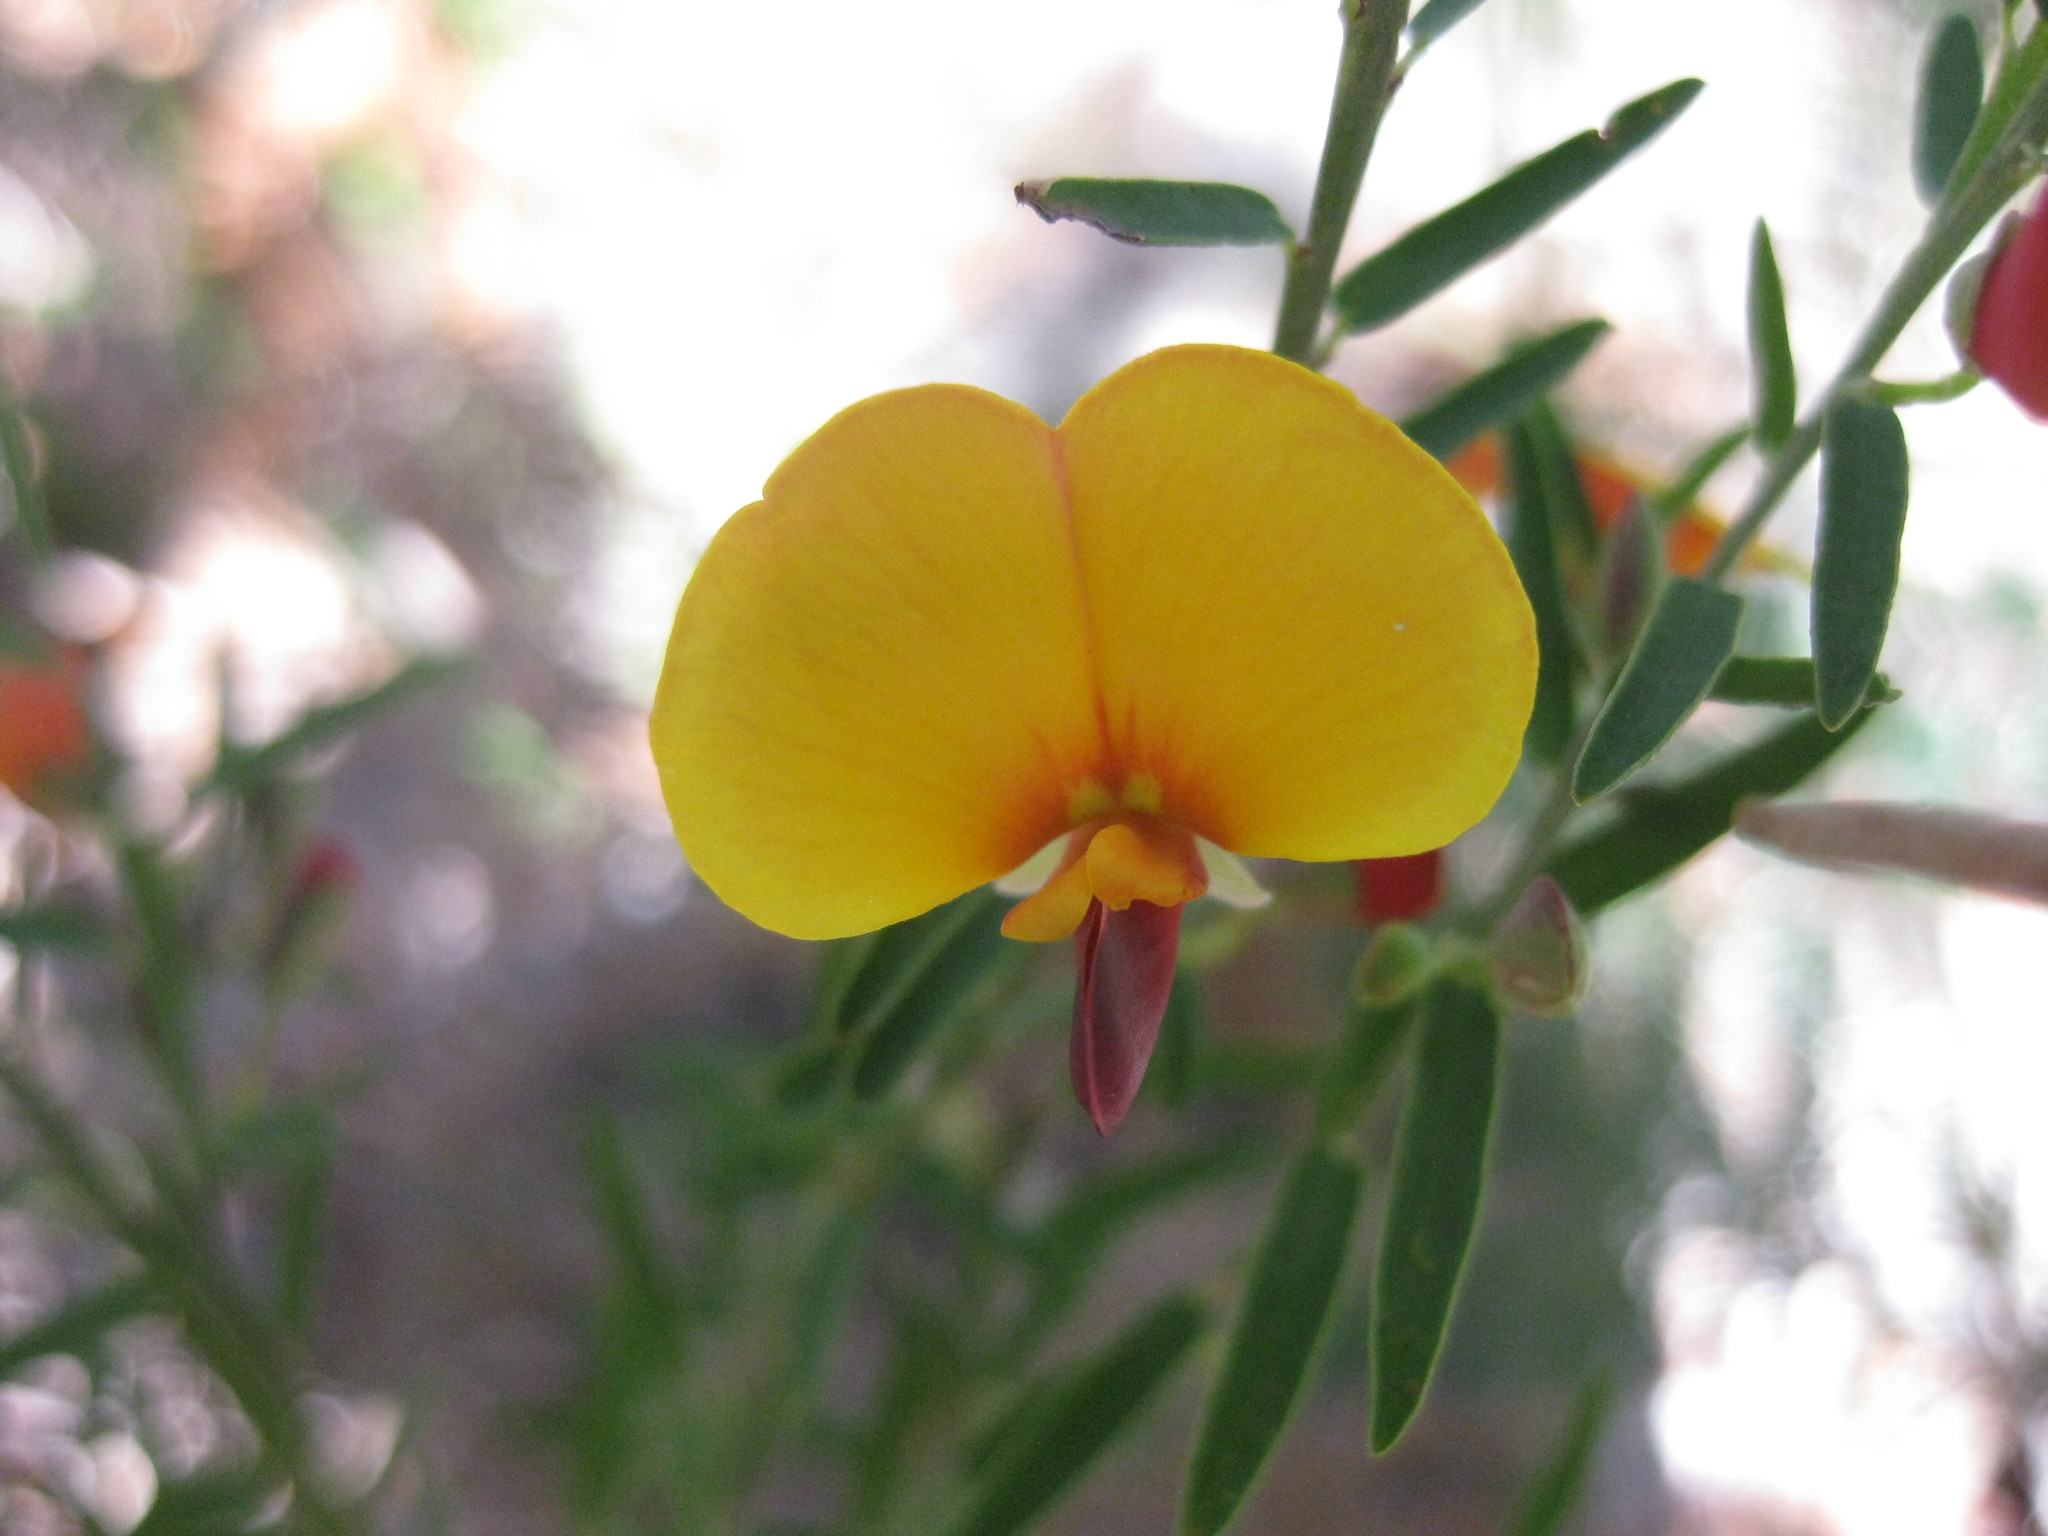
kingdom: Plantae
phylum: Tracheophyta
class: Magnoliopsida
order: Fabales
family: Fabaceae
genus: Bossiaea
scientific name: Bossiaea heterophylla
